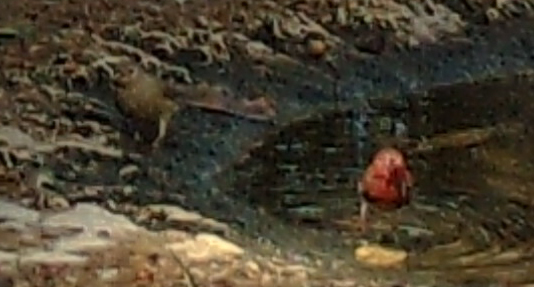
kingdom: Animalia
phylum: Chordata
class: Aves
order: Passeriformes
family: Estrildidae
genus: Lagonosticta
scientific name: Lagonosticta senegala
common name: Red-billed firefinch
